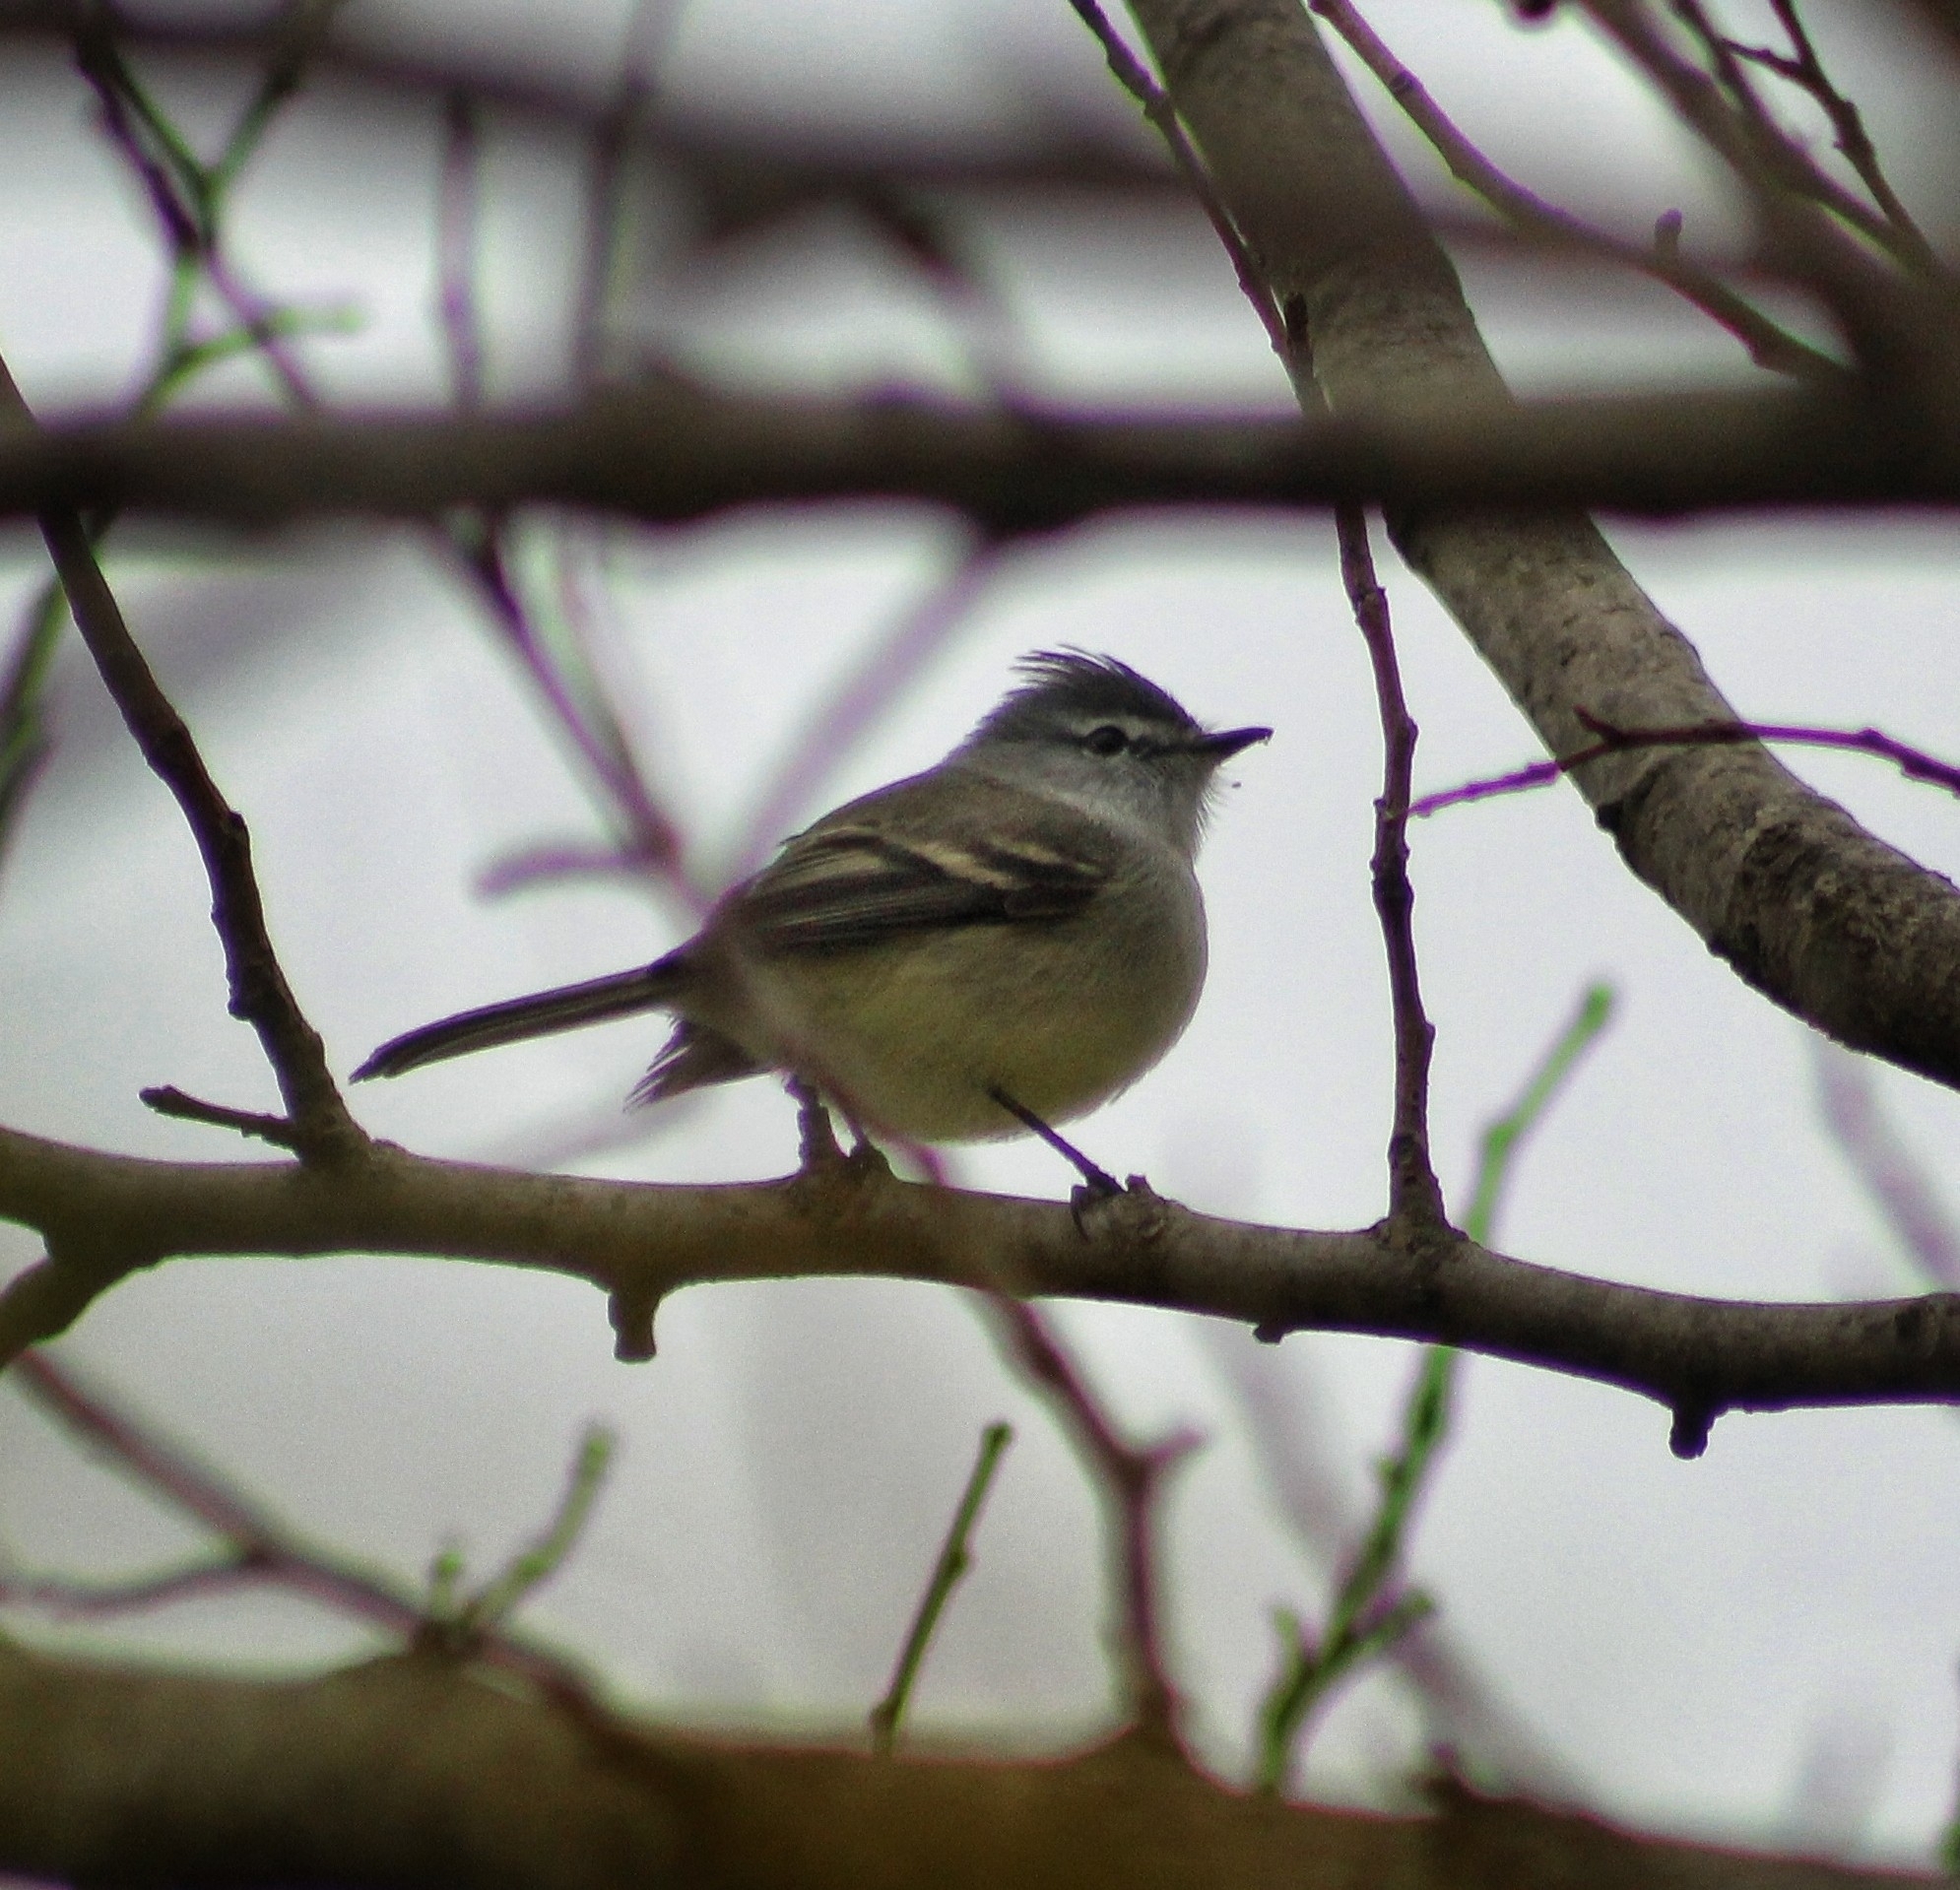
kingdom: Animalia
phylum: Chordata
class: Aves
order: Passeriformes
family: Tyrannidae
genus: Serpophaga
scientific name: Serpophaga subcristata
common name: White-crested tyrannulet
